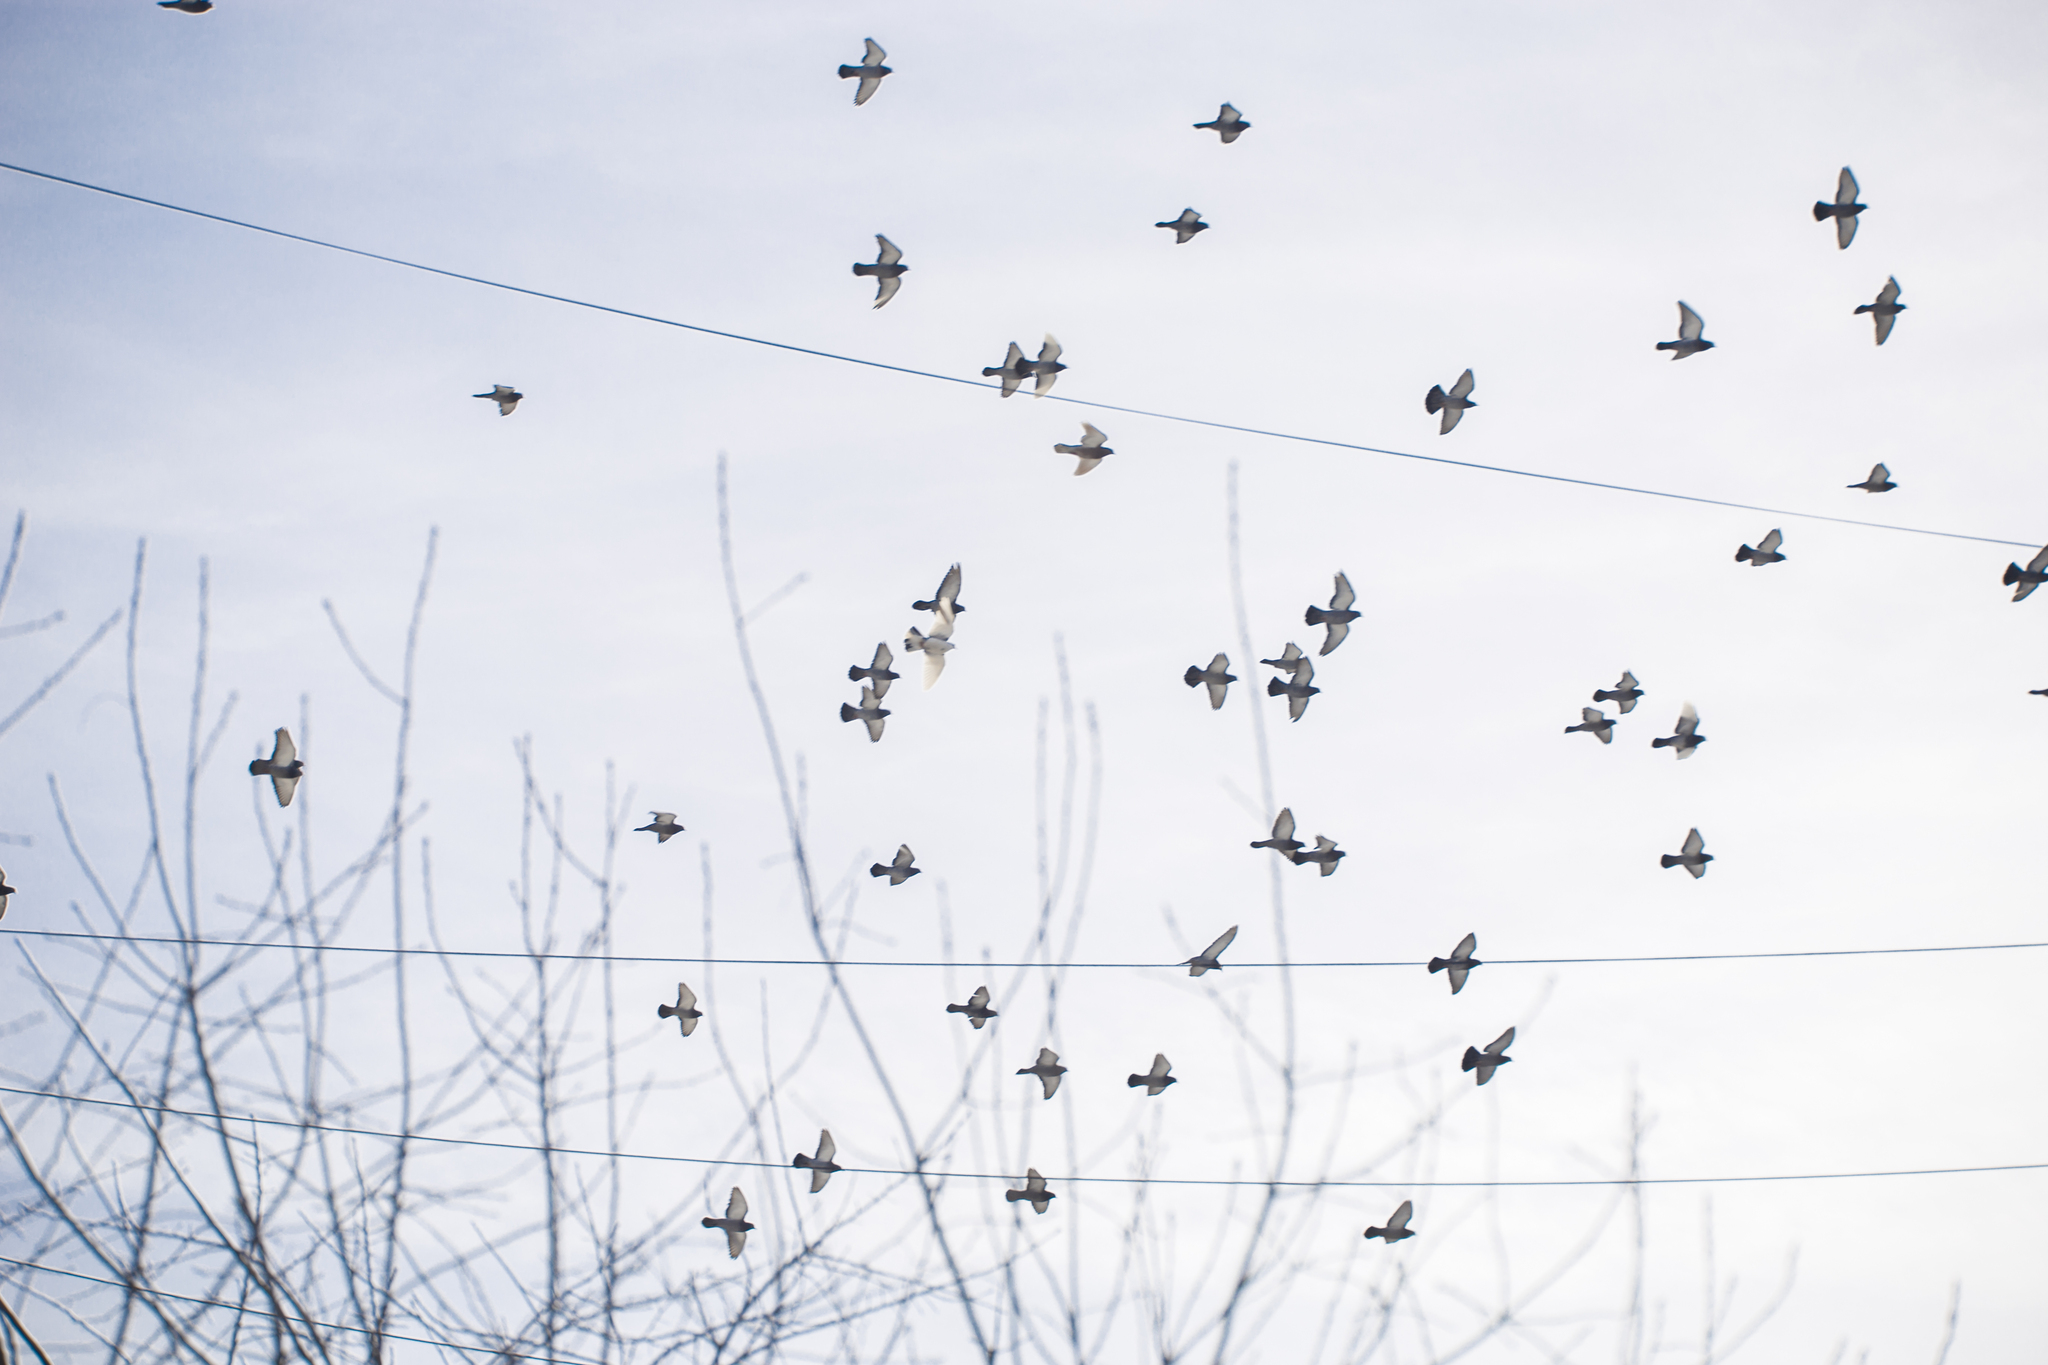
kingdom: Animalia
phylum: Chordata
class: Aves
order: Columbiformes
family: Columbidae
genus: Columba
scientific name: Columba livia
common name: Rock pigeon
